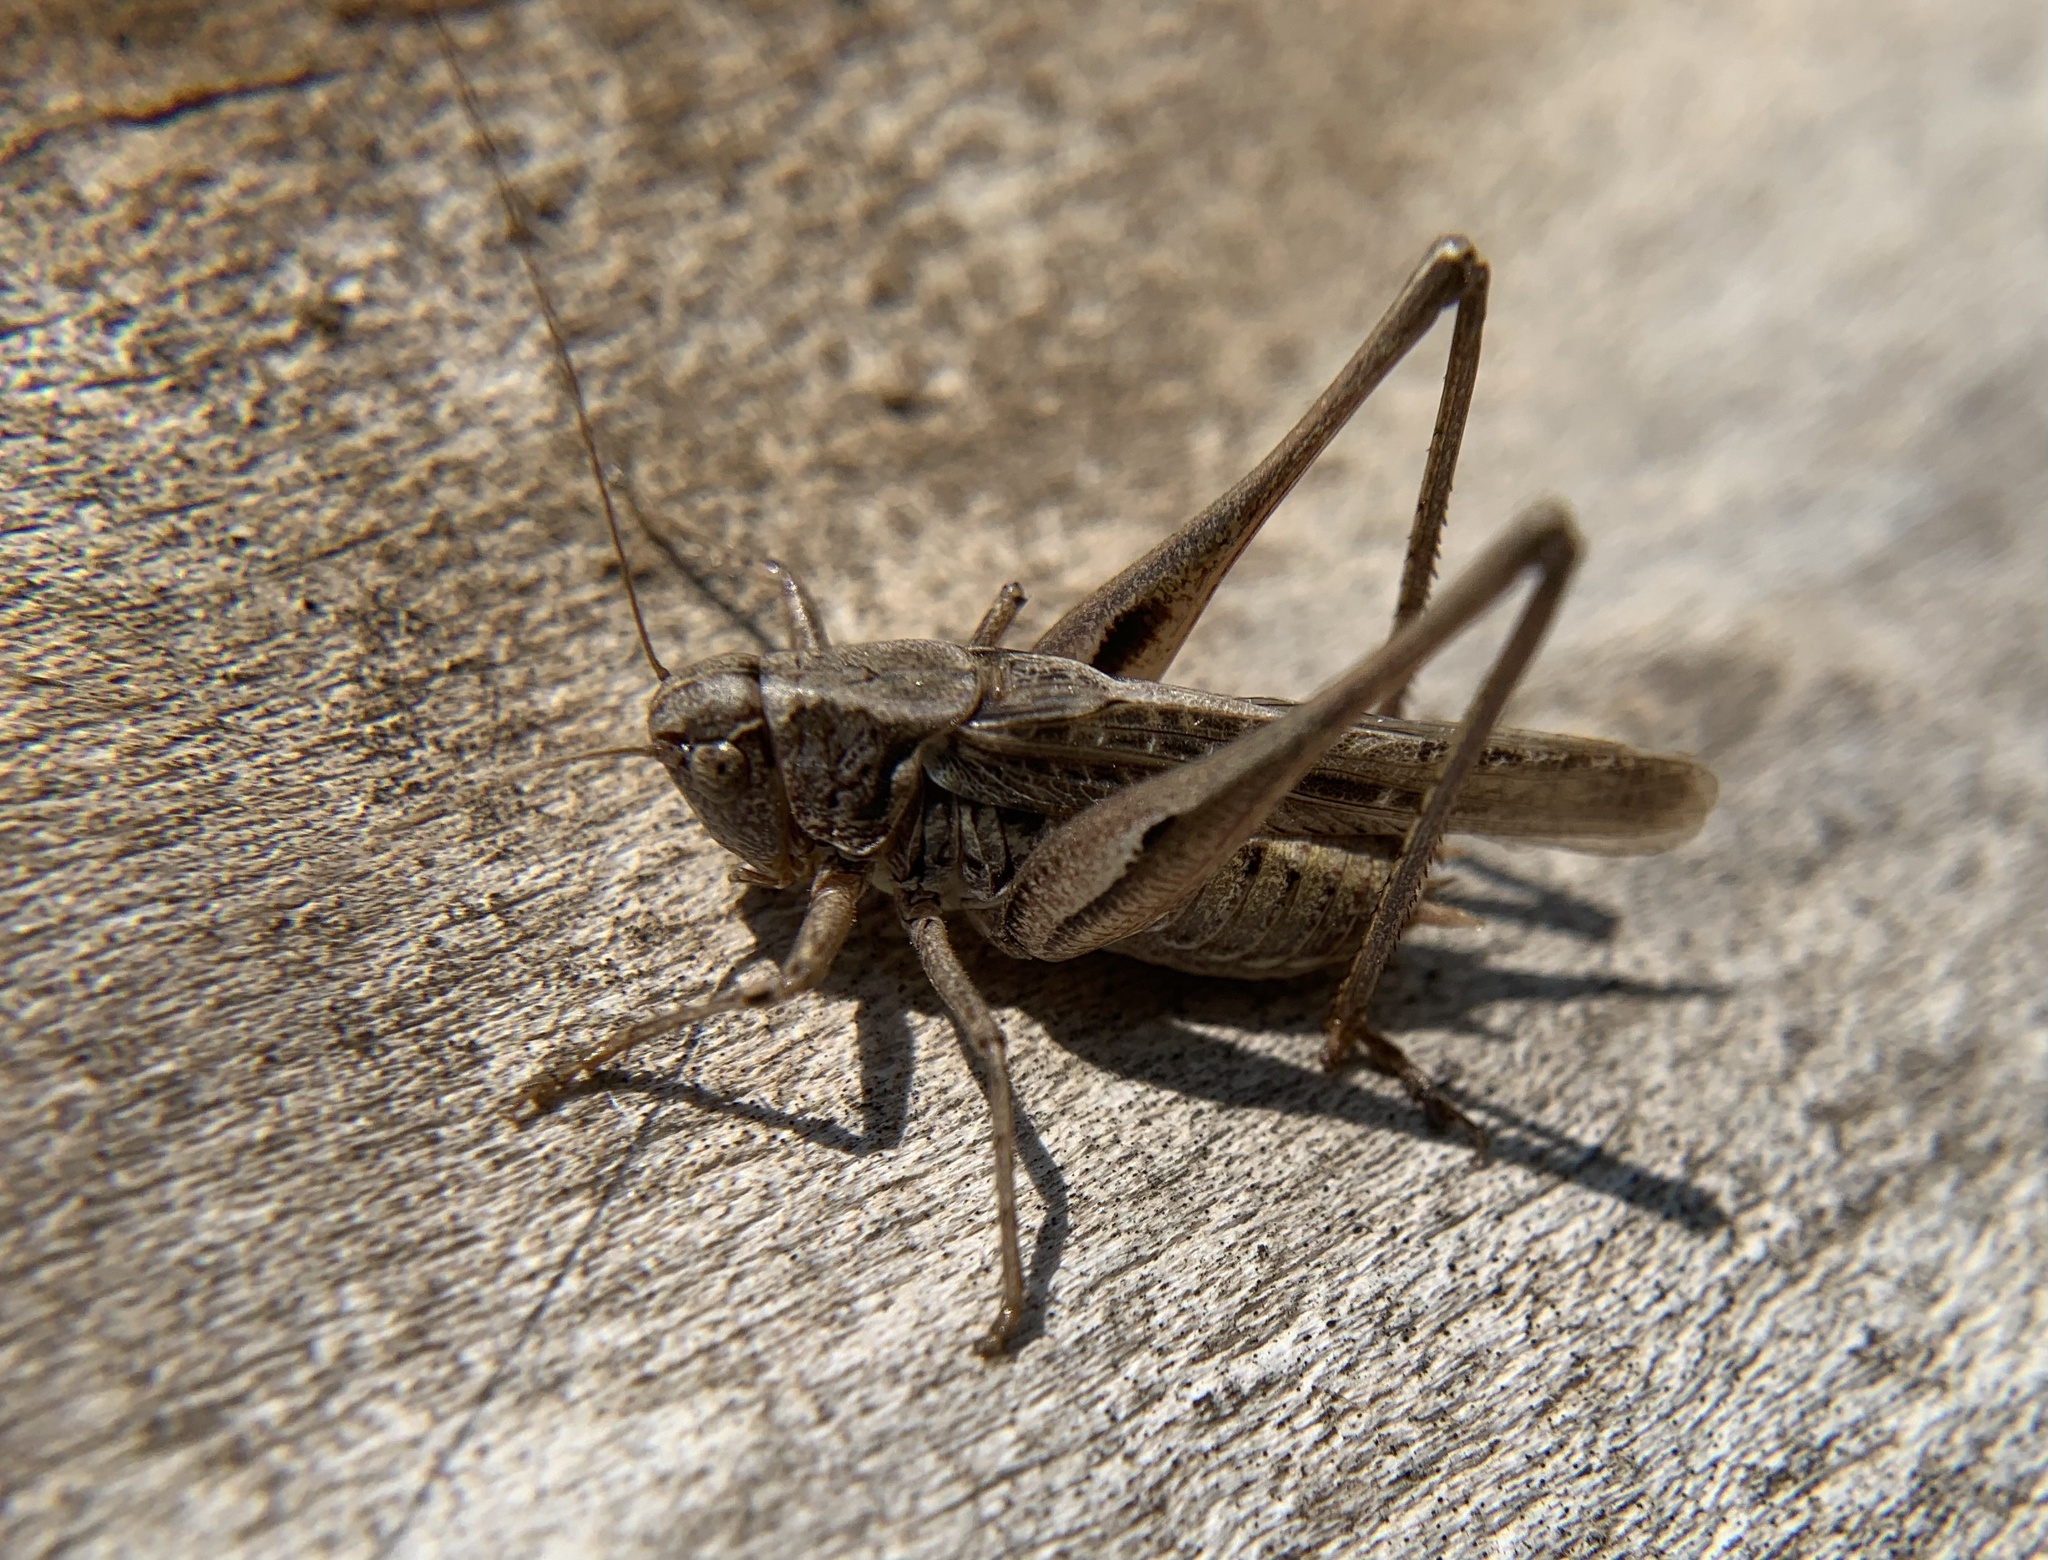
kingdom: Animalia
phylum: Arthropoda
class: Insecta
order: Orthoptera
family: Tettigoniidae
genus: Platycleis
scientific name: Platycleis albopunctata
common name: Grey bush-cricket
